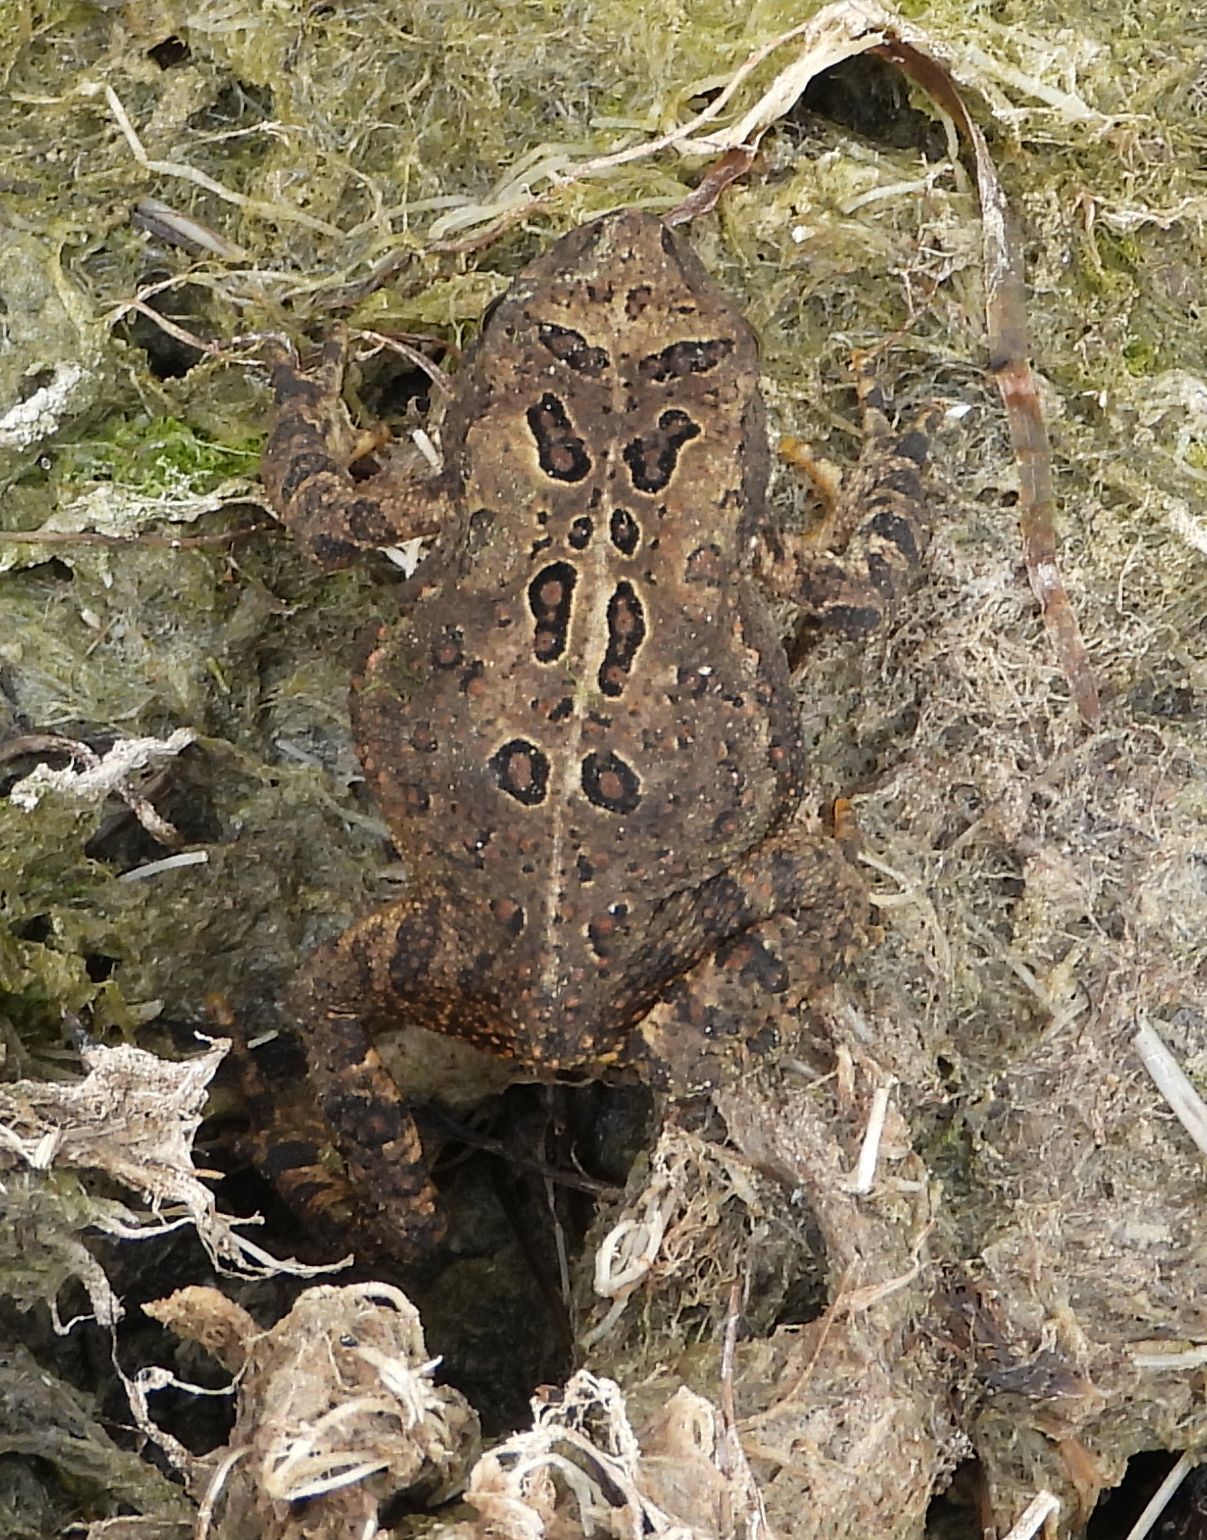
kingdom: Animalia
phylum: Chordata
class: Amphibia
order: Anura
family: Bufonidae
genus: Anaxyrus
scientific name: Anaxyrus americanus
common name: American toad
